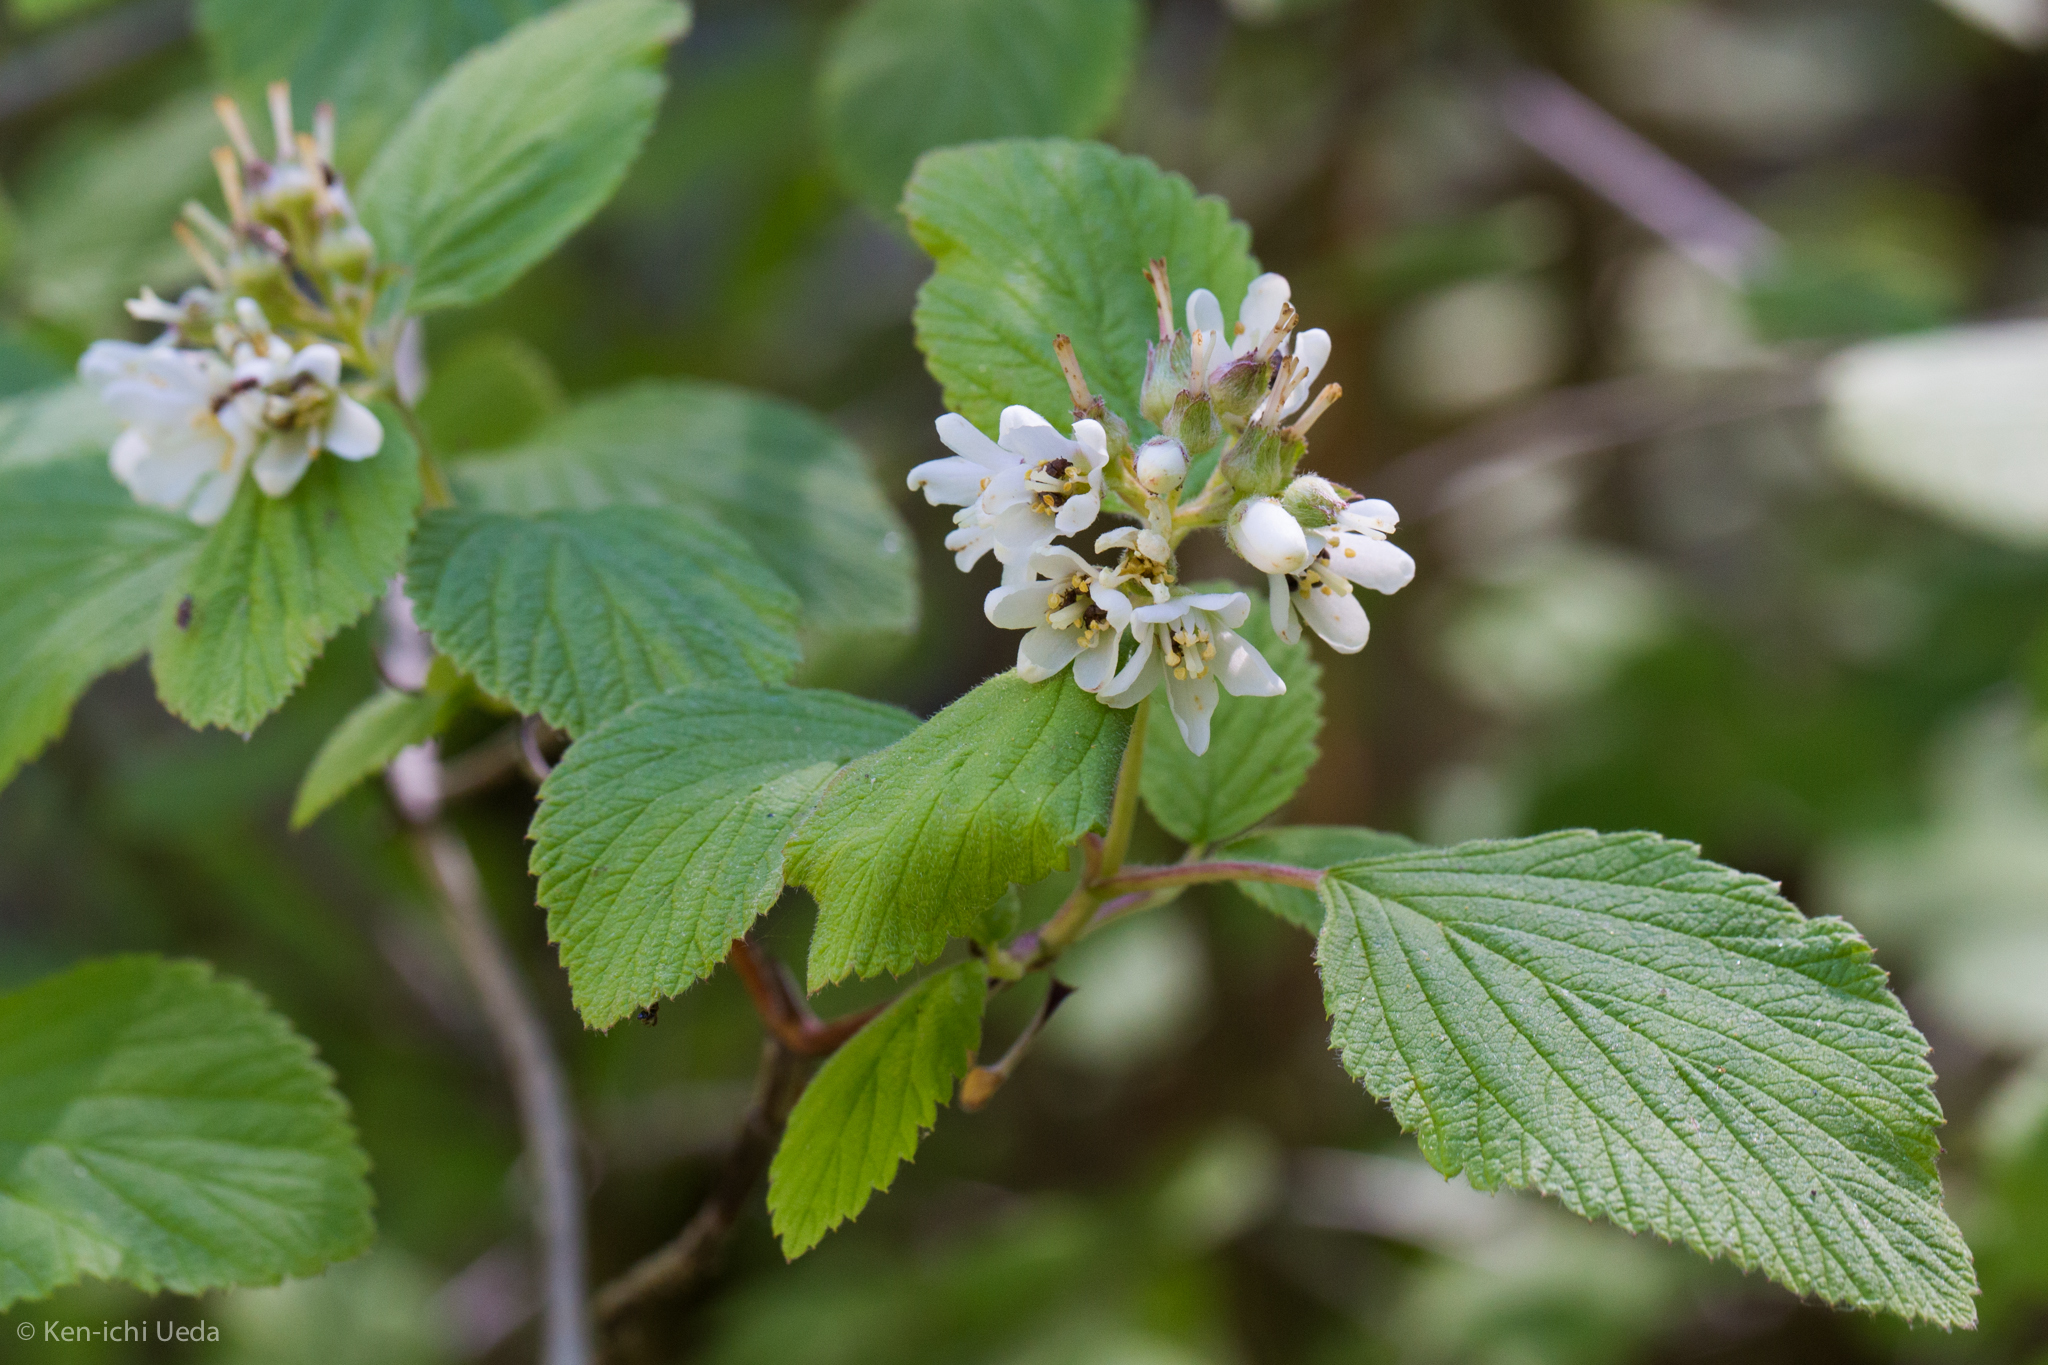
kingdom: Plantae
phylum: Tracheophyta
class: Magnoliopsida
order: Cornales
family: Hydrangeaceae
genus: Jamesia
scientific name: Jamesia americana
